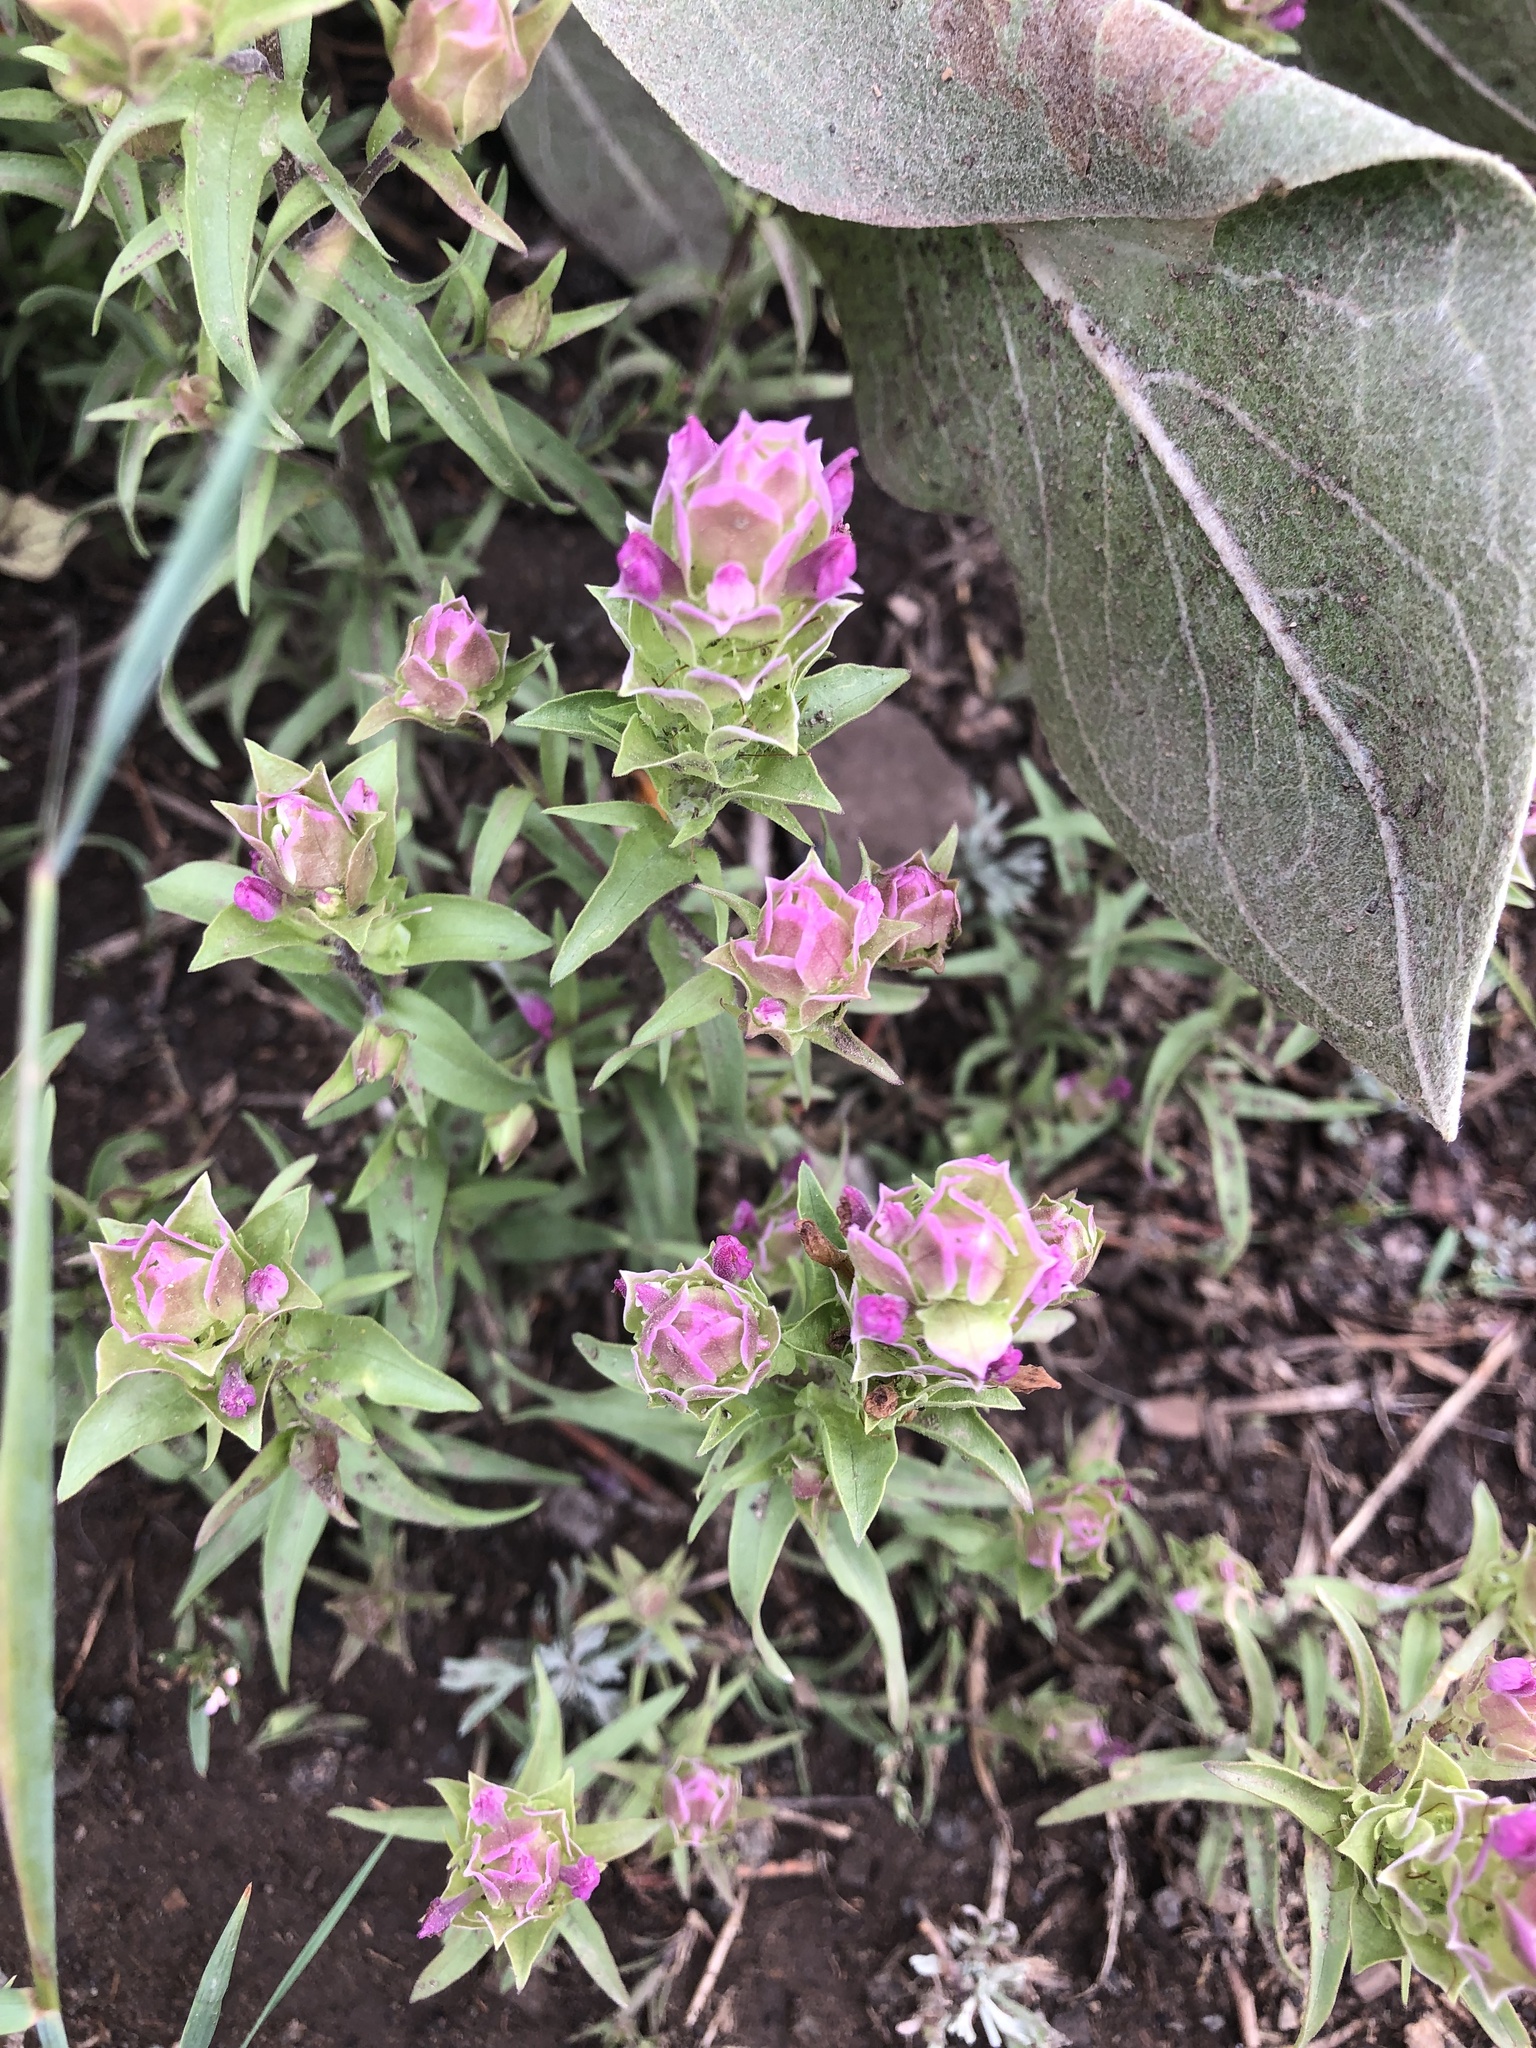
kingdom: Plantae
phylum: Tracheophyta
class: Magnoliopsida
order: Lamiales
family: Orobanchaceae
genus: Orthocarpus
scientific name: Orthocarpus cuspidatus
